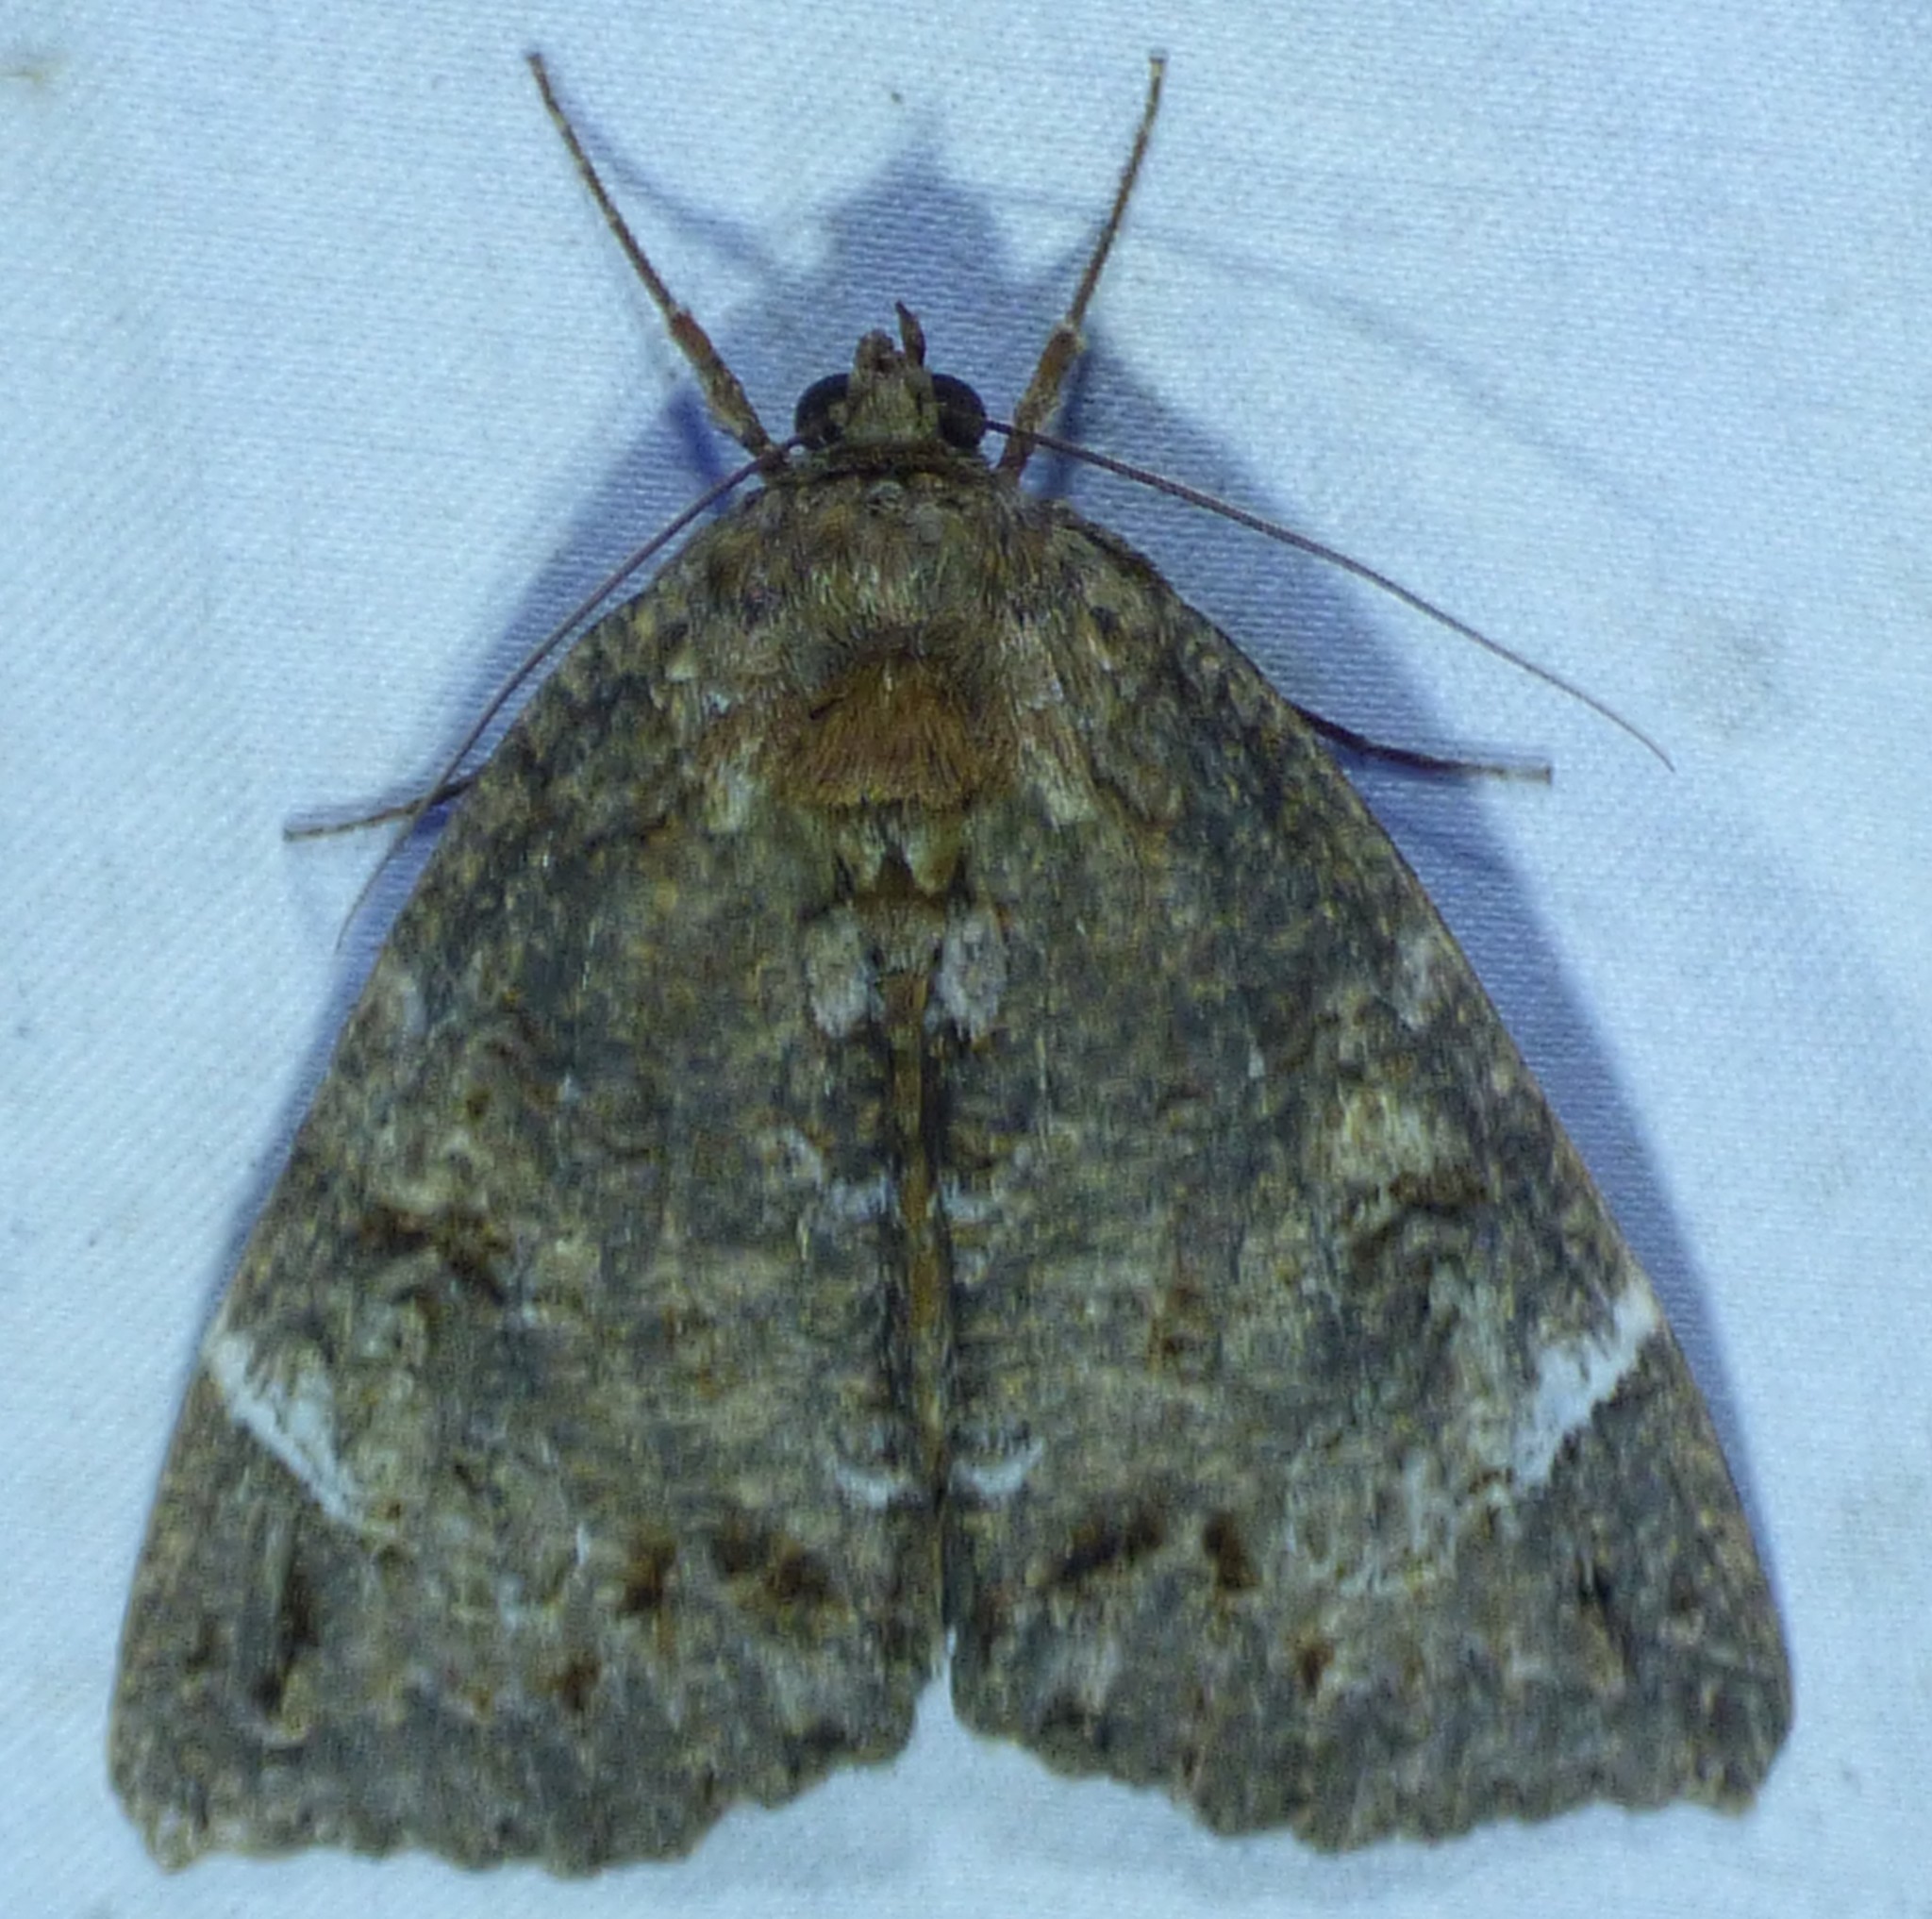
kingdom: Animalia
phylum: Arthropoda
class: Insecta
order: Lepidoptera
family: Erebidae
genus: Euparthenos
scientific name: Euparthenos nubilis
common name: Locust underwing
